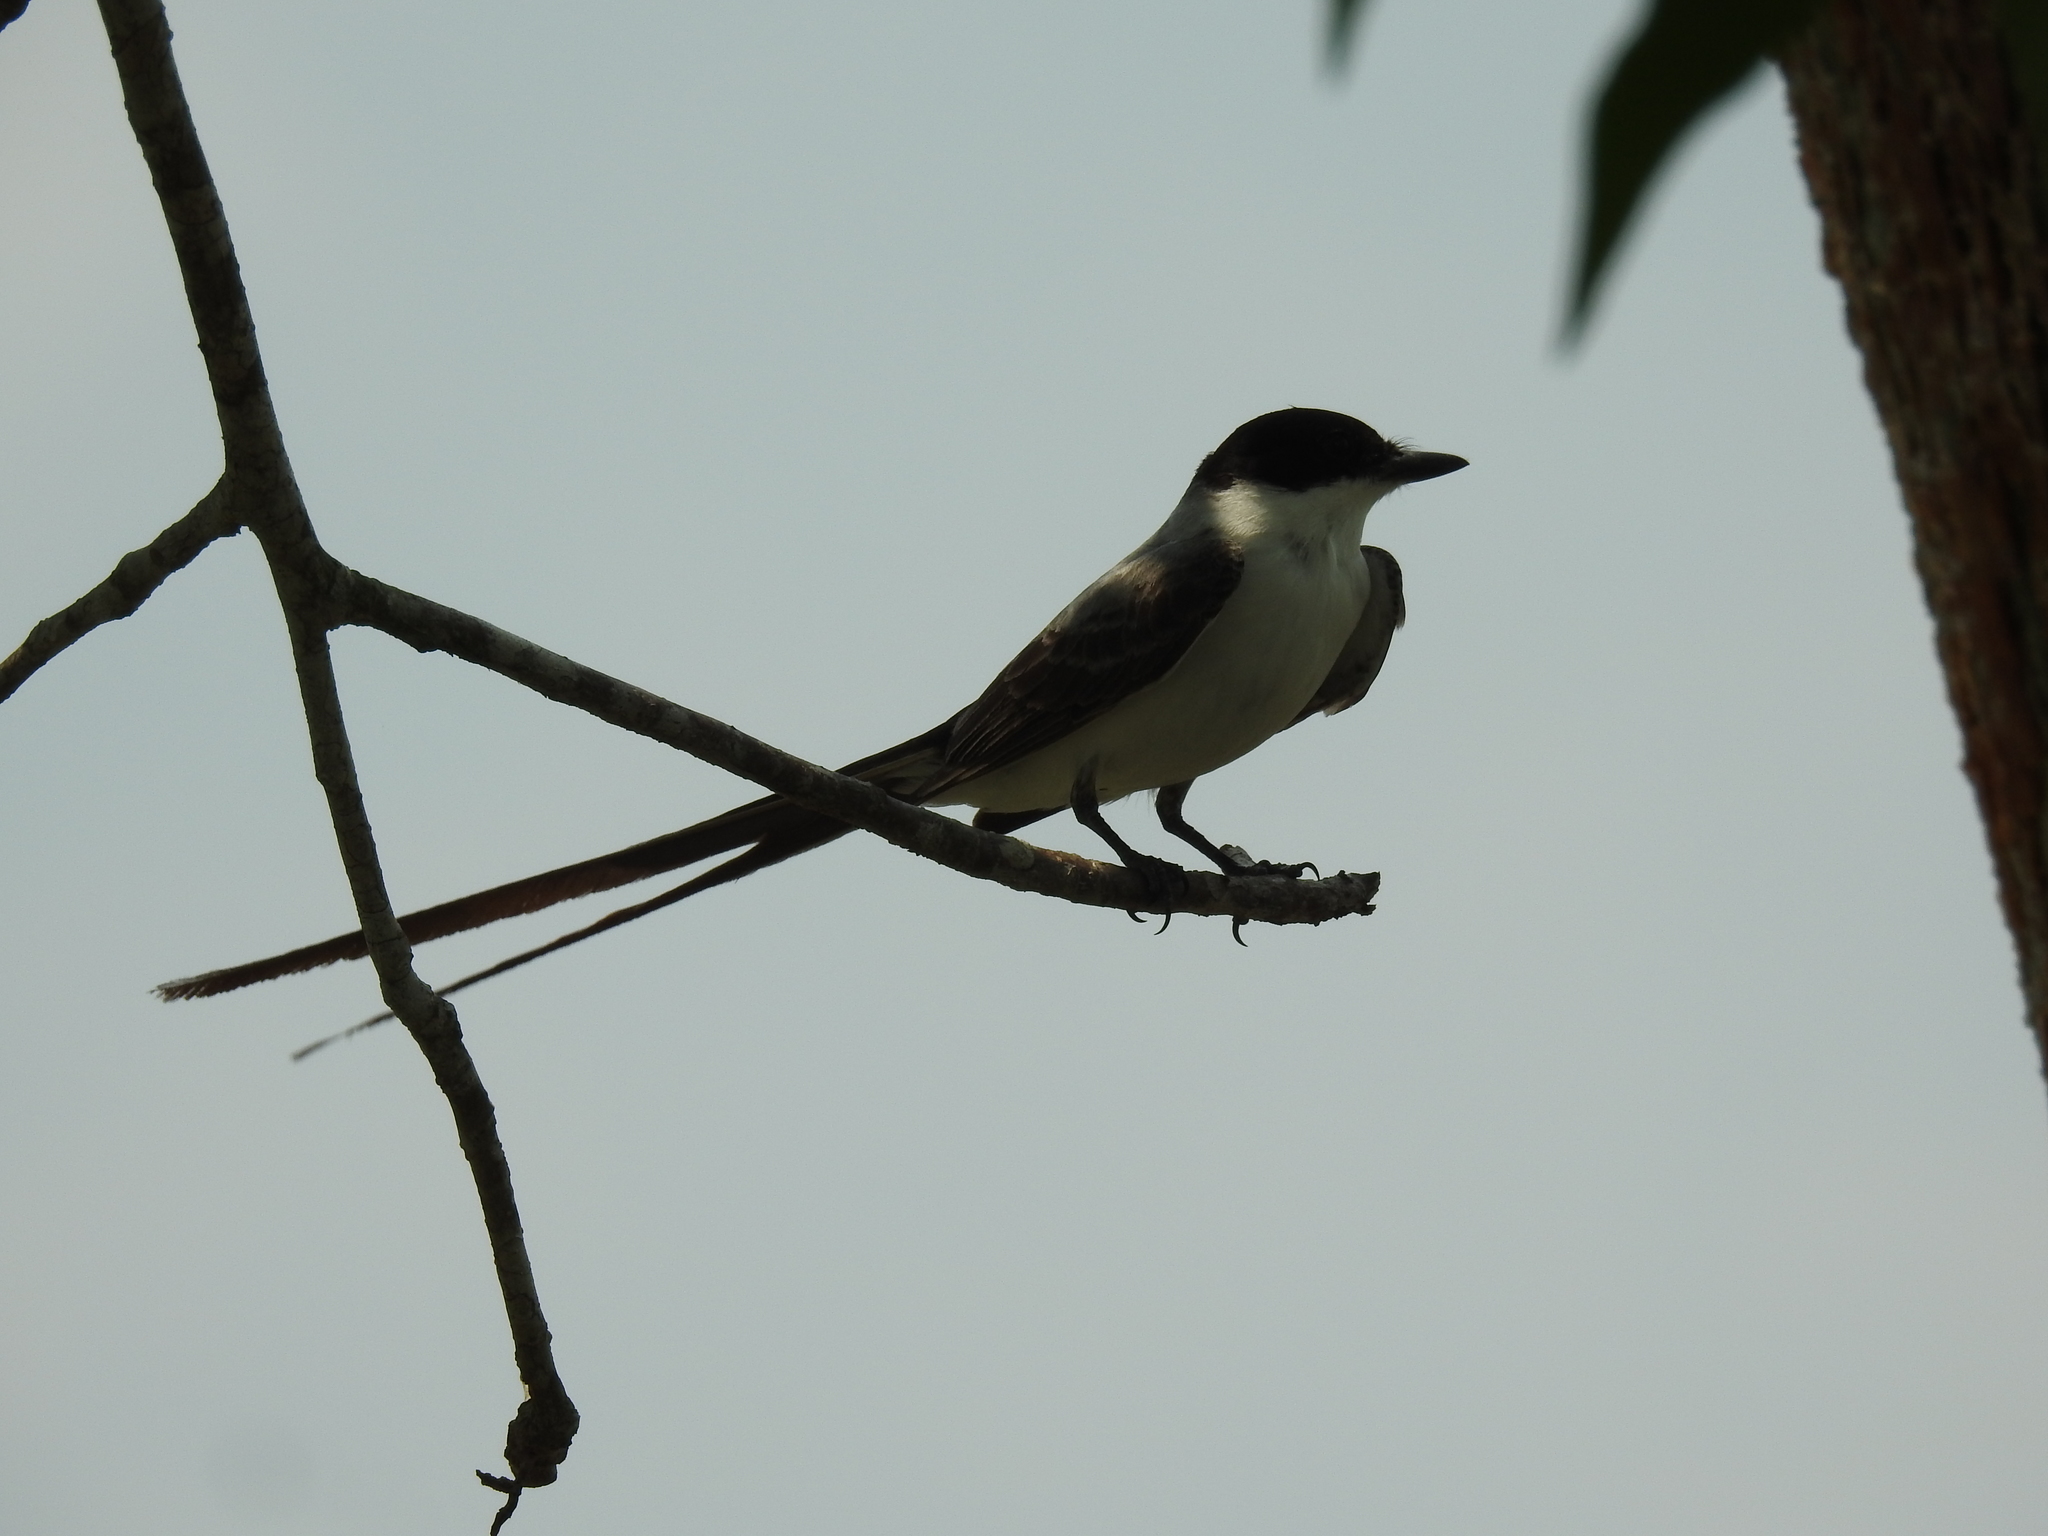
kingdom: Animalia
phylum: Chordata
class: Aves
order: Passeriformes
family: Tyrannidae
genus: Tyrannus
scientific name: Tyrannus savana
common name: Fork-tailed flycatcher
